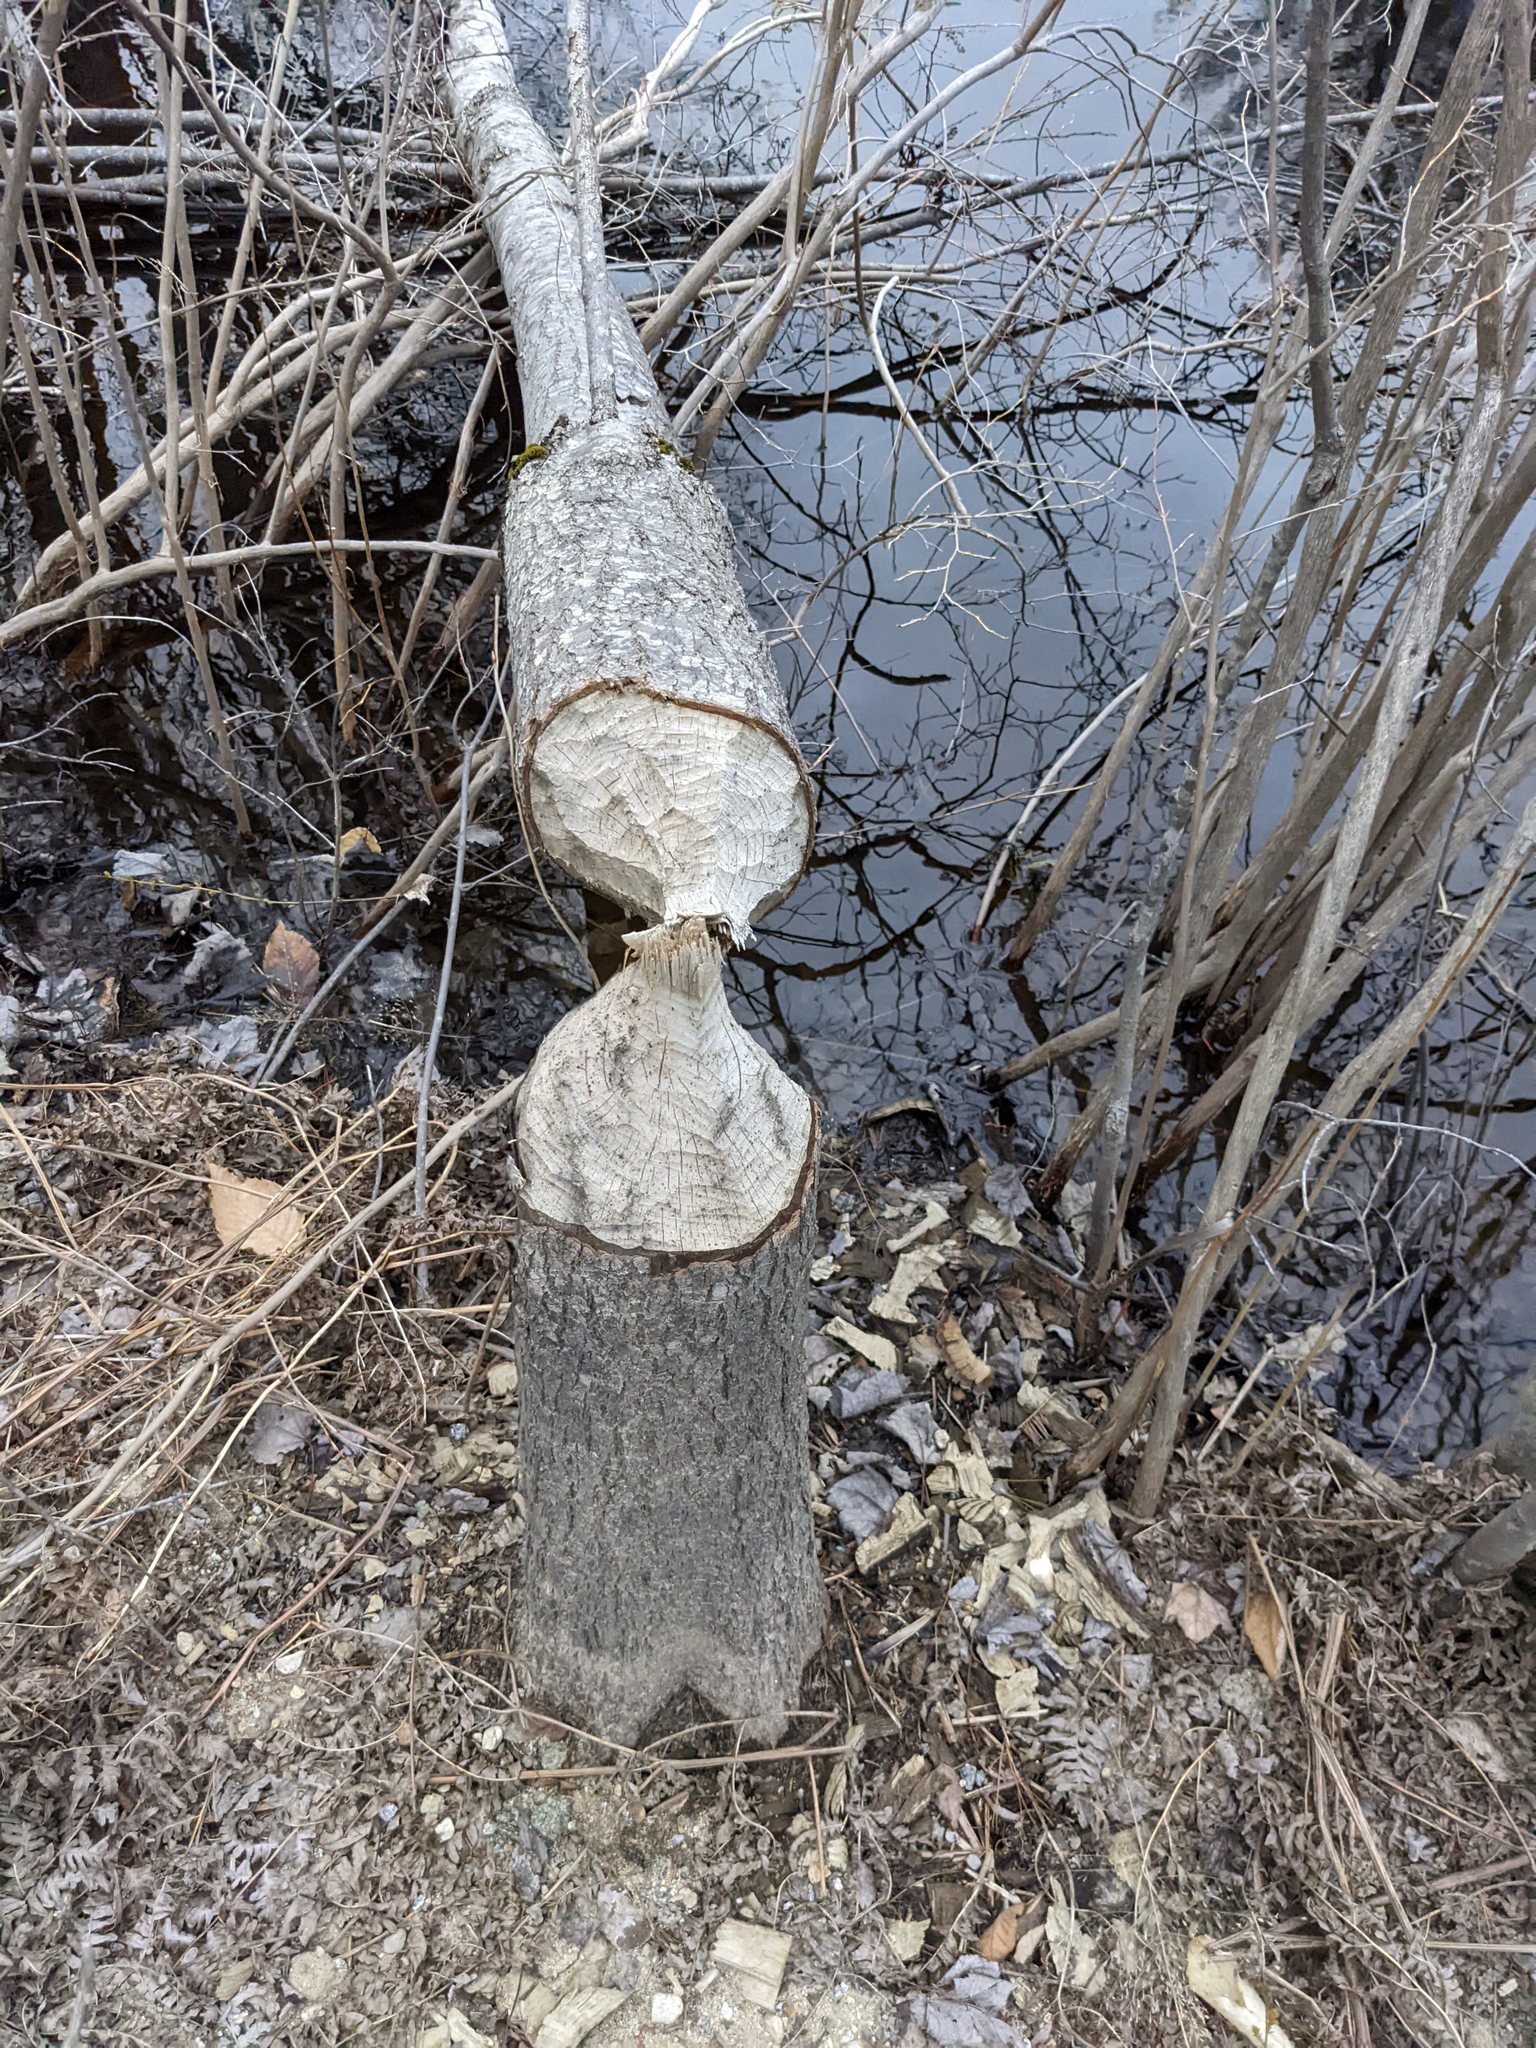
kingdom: Animalia
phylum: Chordata
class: Mammalia
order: Rodentia
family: Castoridae
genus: Castor
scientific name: Castor canadensis
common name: American beaver
